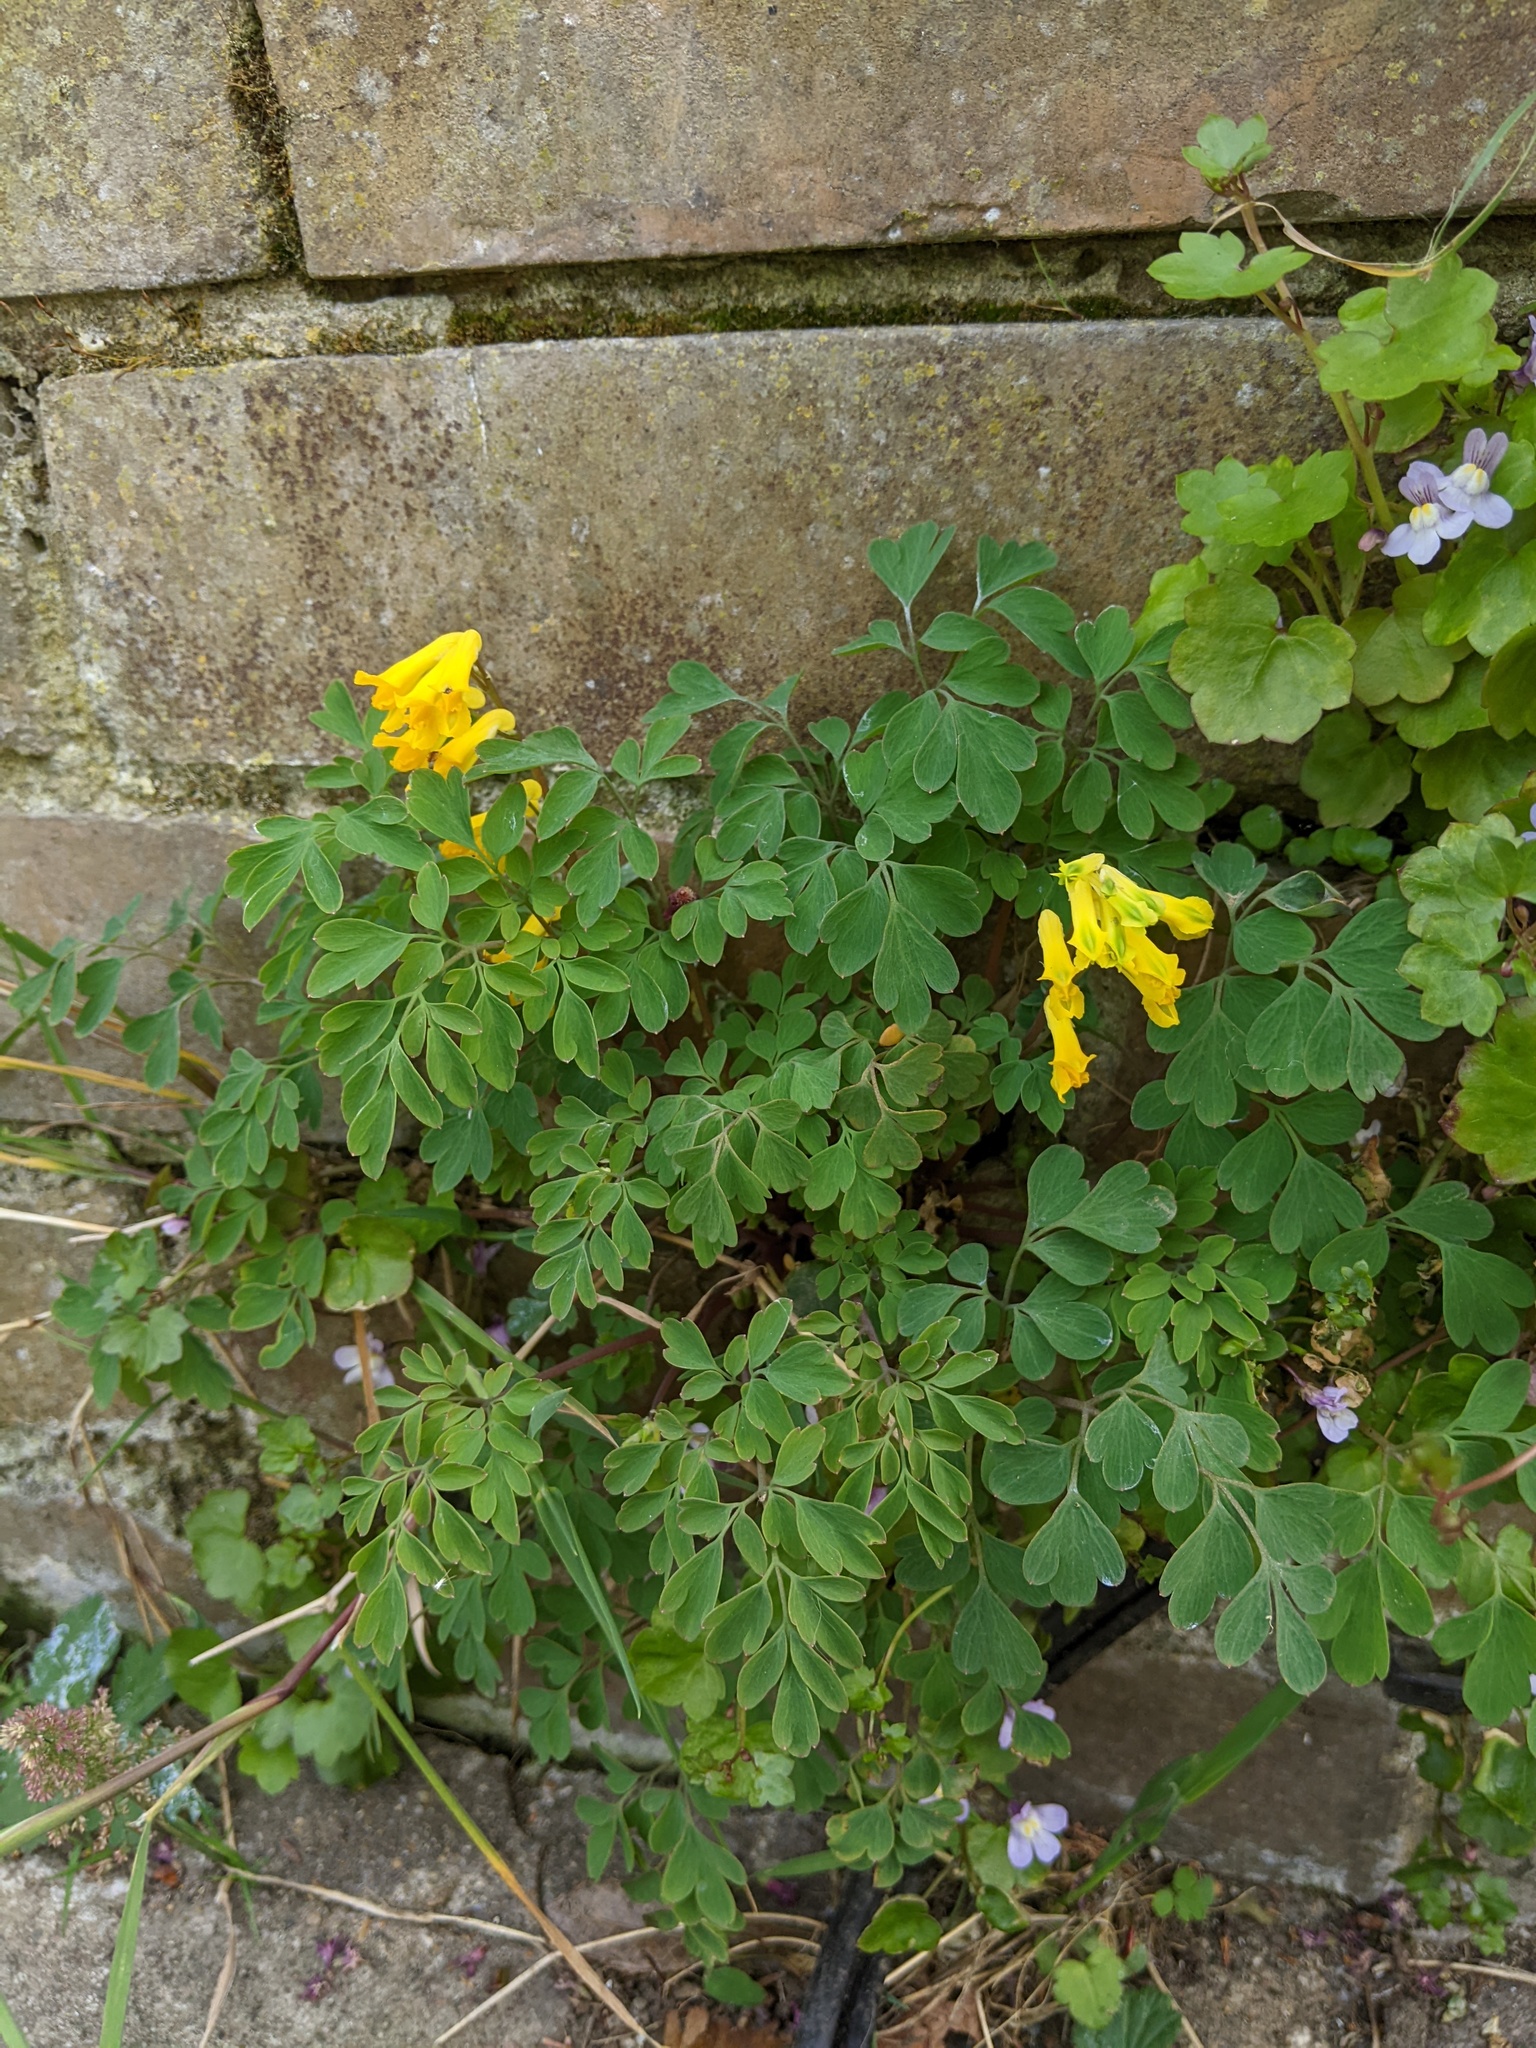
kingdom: Plantae
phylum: Tracheophyta
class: Magnoliopsida
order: Ranunculales
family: Papaveraceae
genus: Pseudofumaria
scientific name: Pseudofumaria lutea
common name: Yellow corydalis
